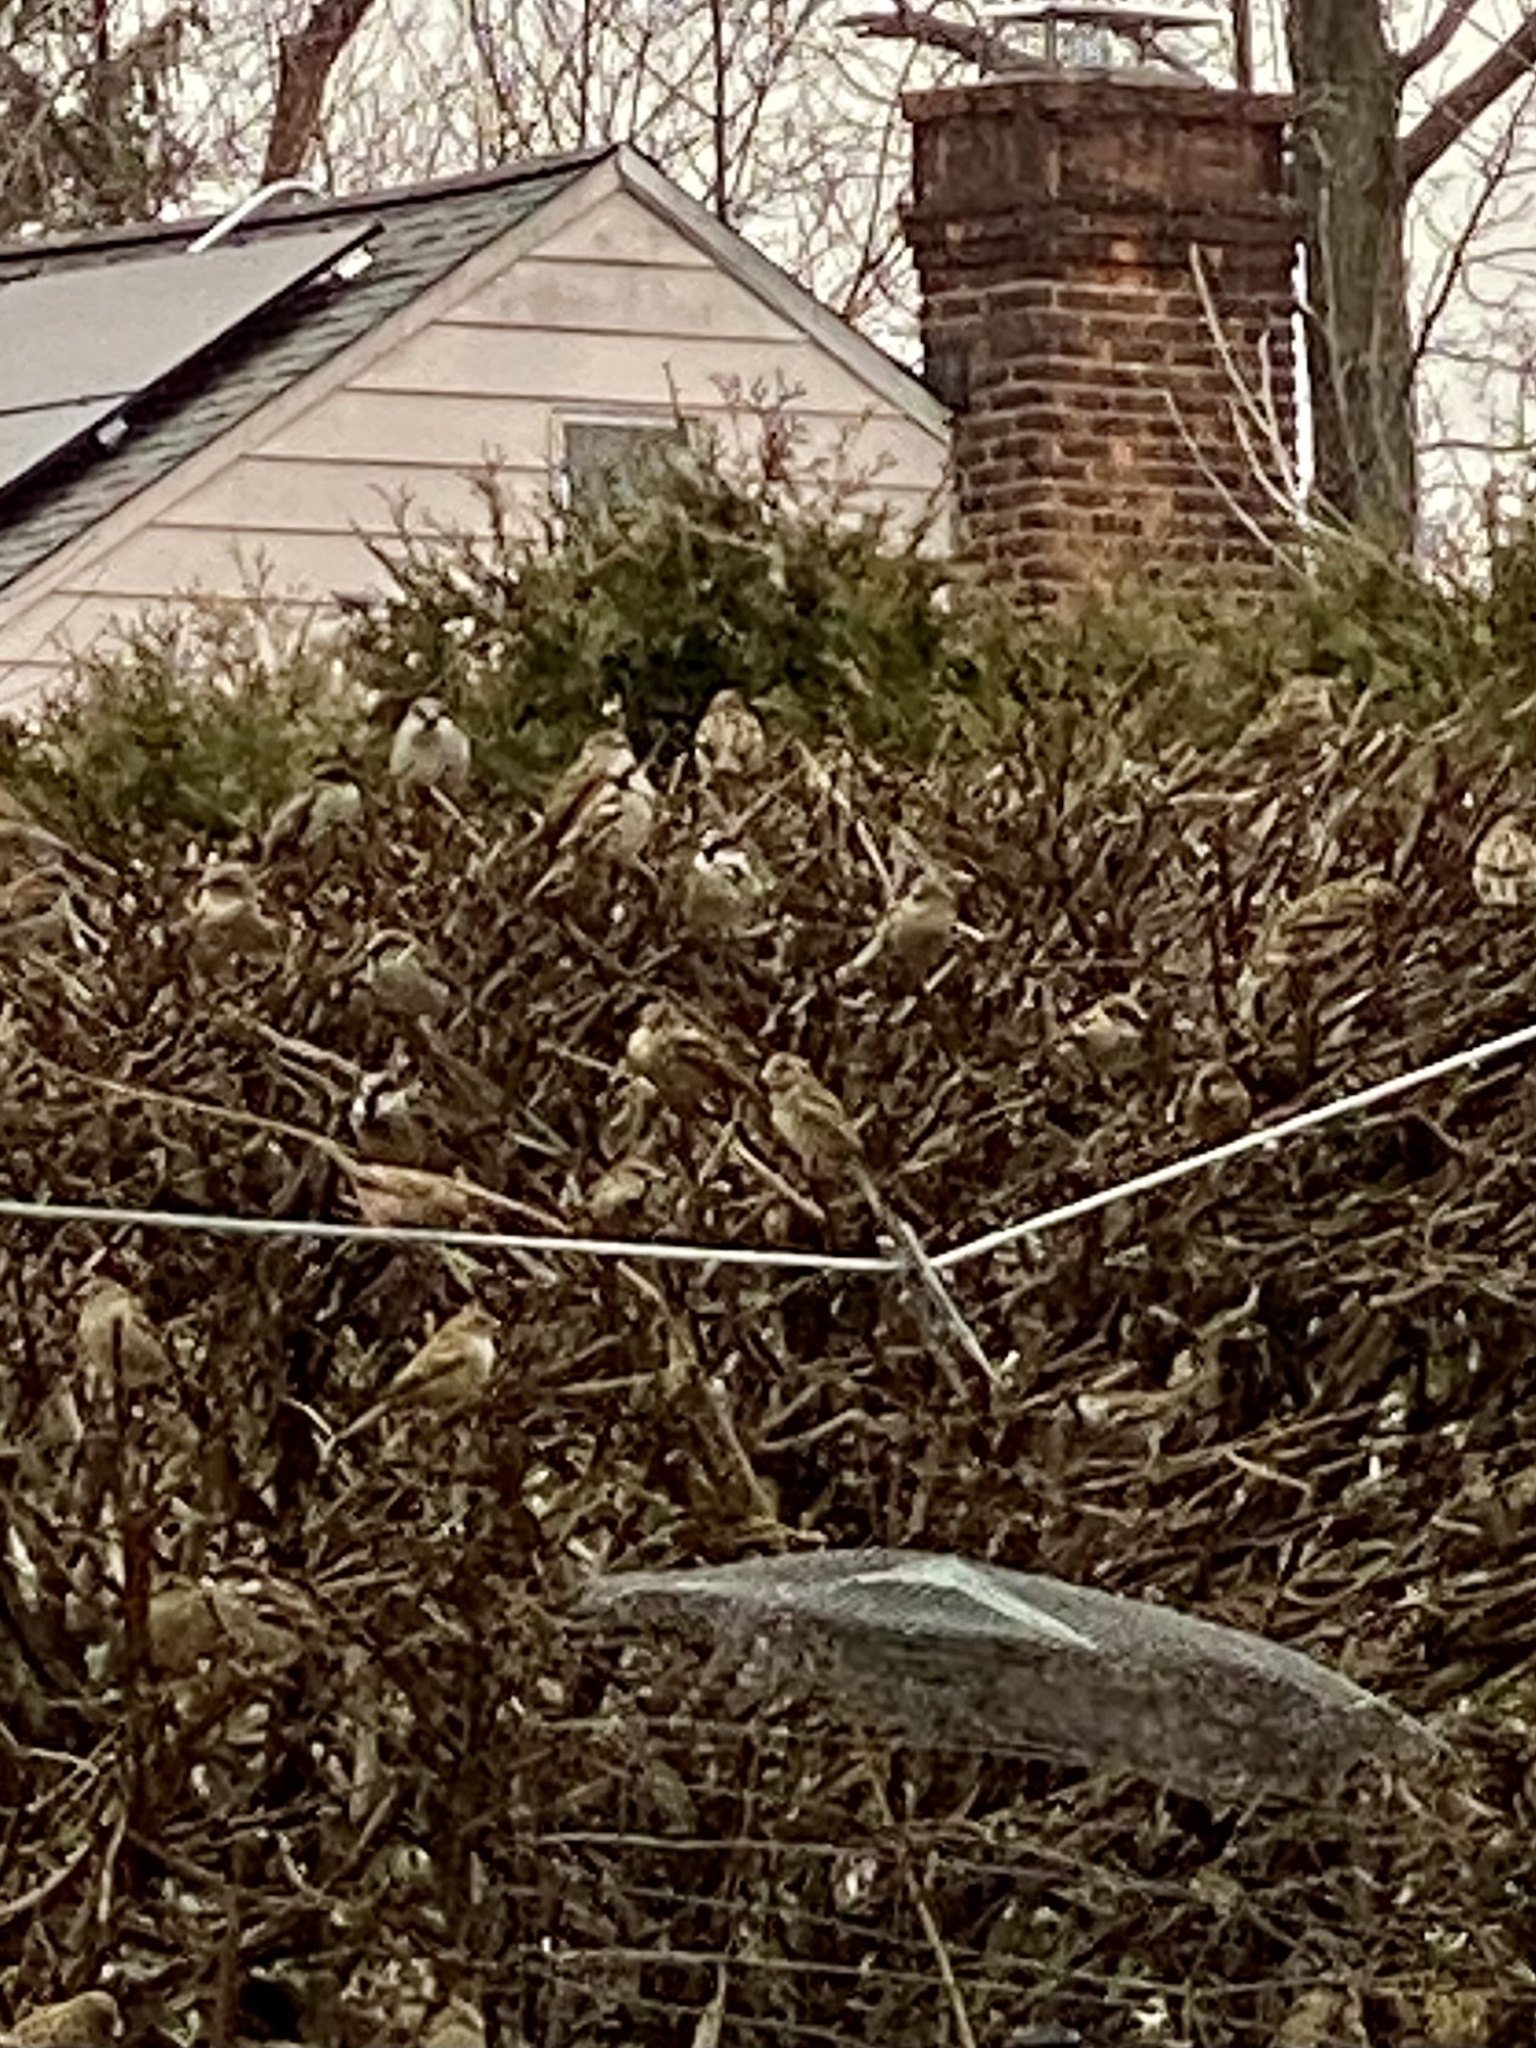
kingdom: Animalia
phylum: Chordata
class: Aves
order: Passeriformes
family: Passeridae
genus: Passer
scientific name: Passer domesticus
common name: House sparrow
